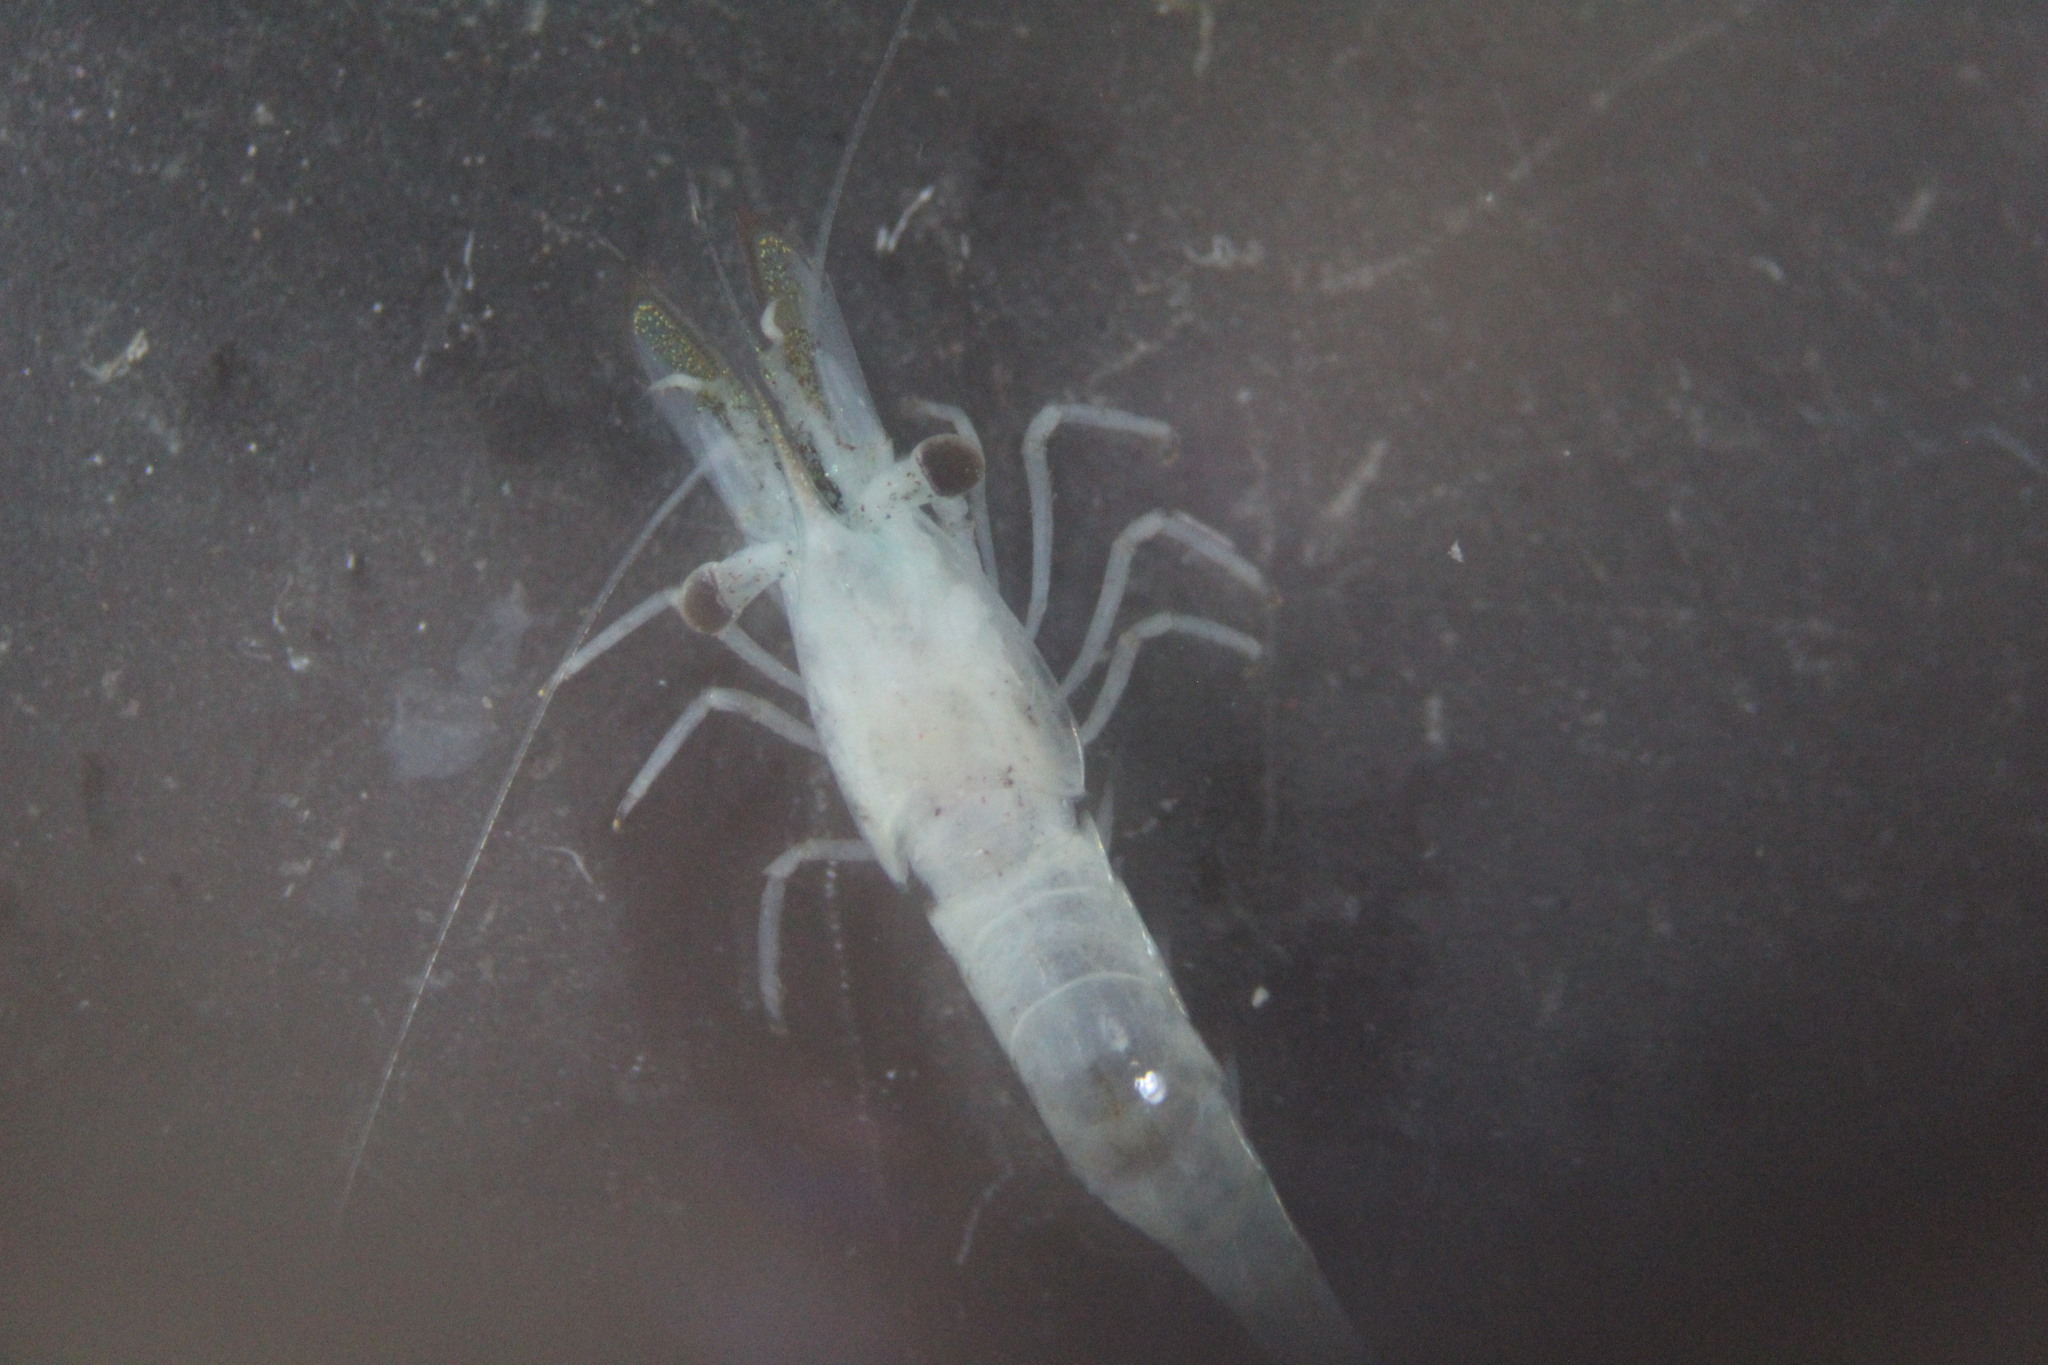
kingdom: Animalia
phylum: Arthropoda
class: Malacostraca
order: Decapoda
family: Hippolytidae
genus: Hippolyte
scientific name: Hippolyte williamsi
